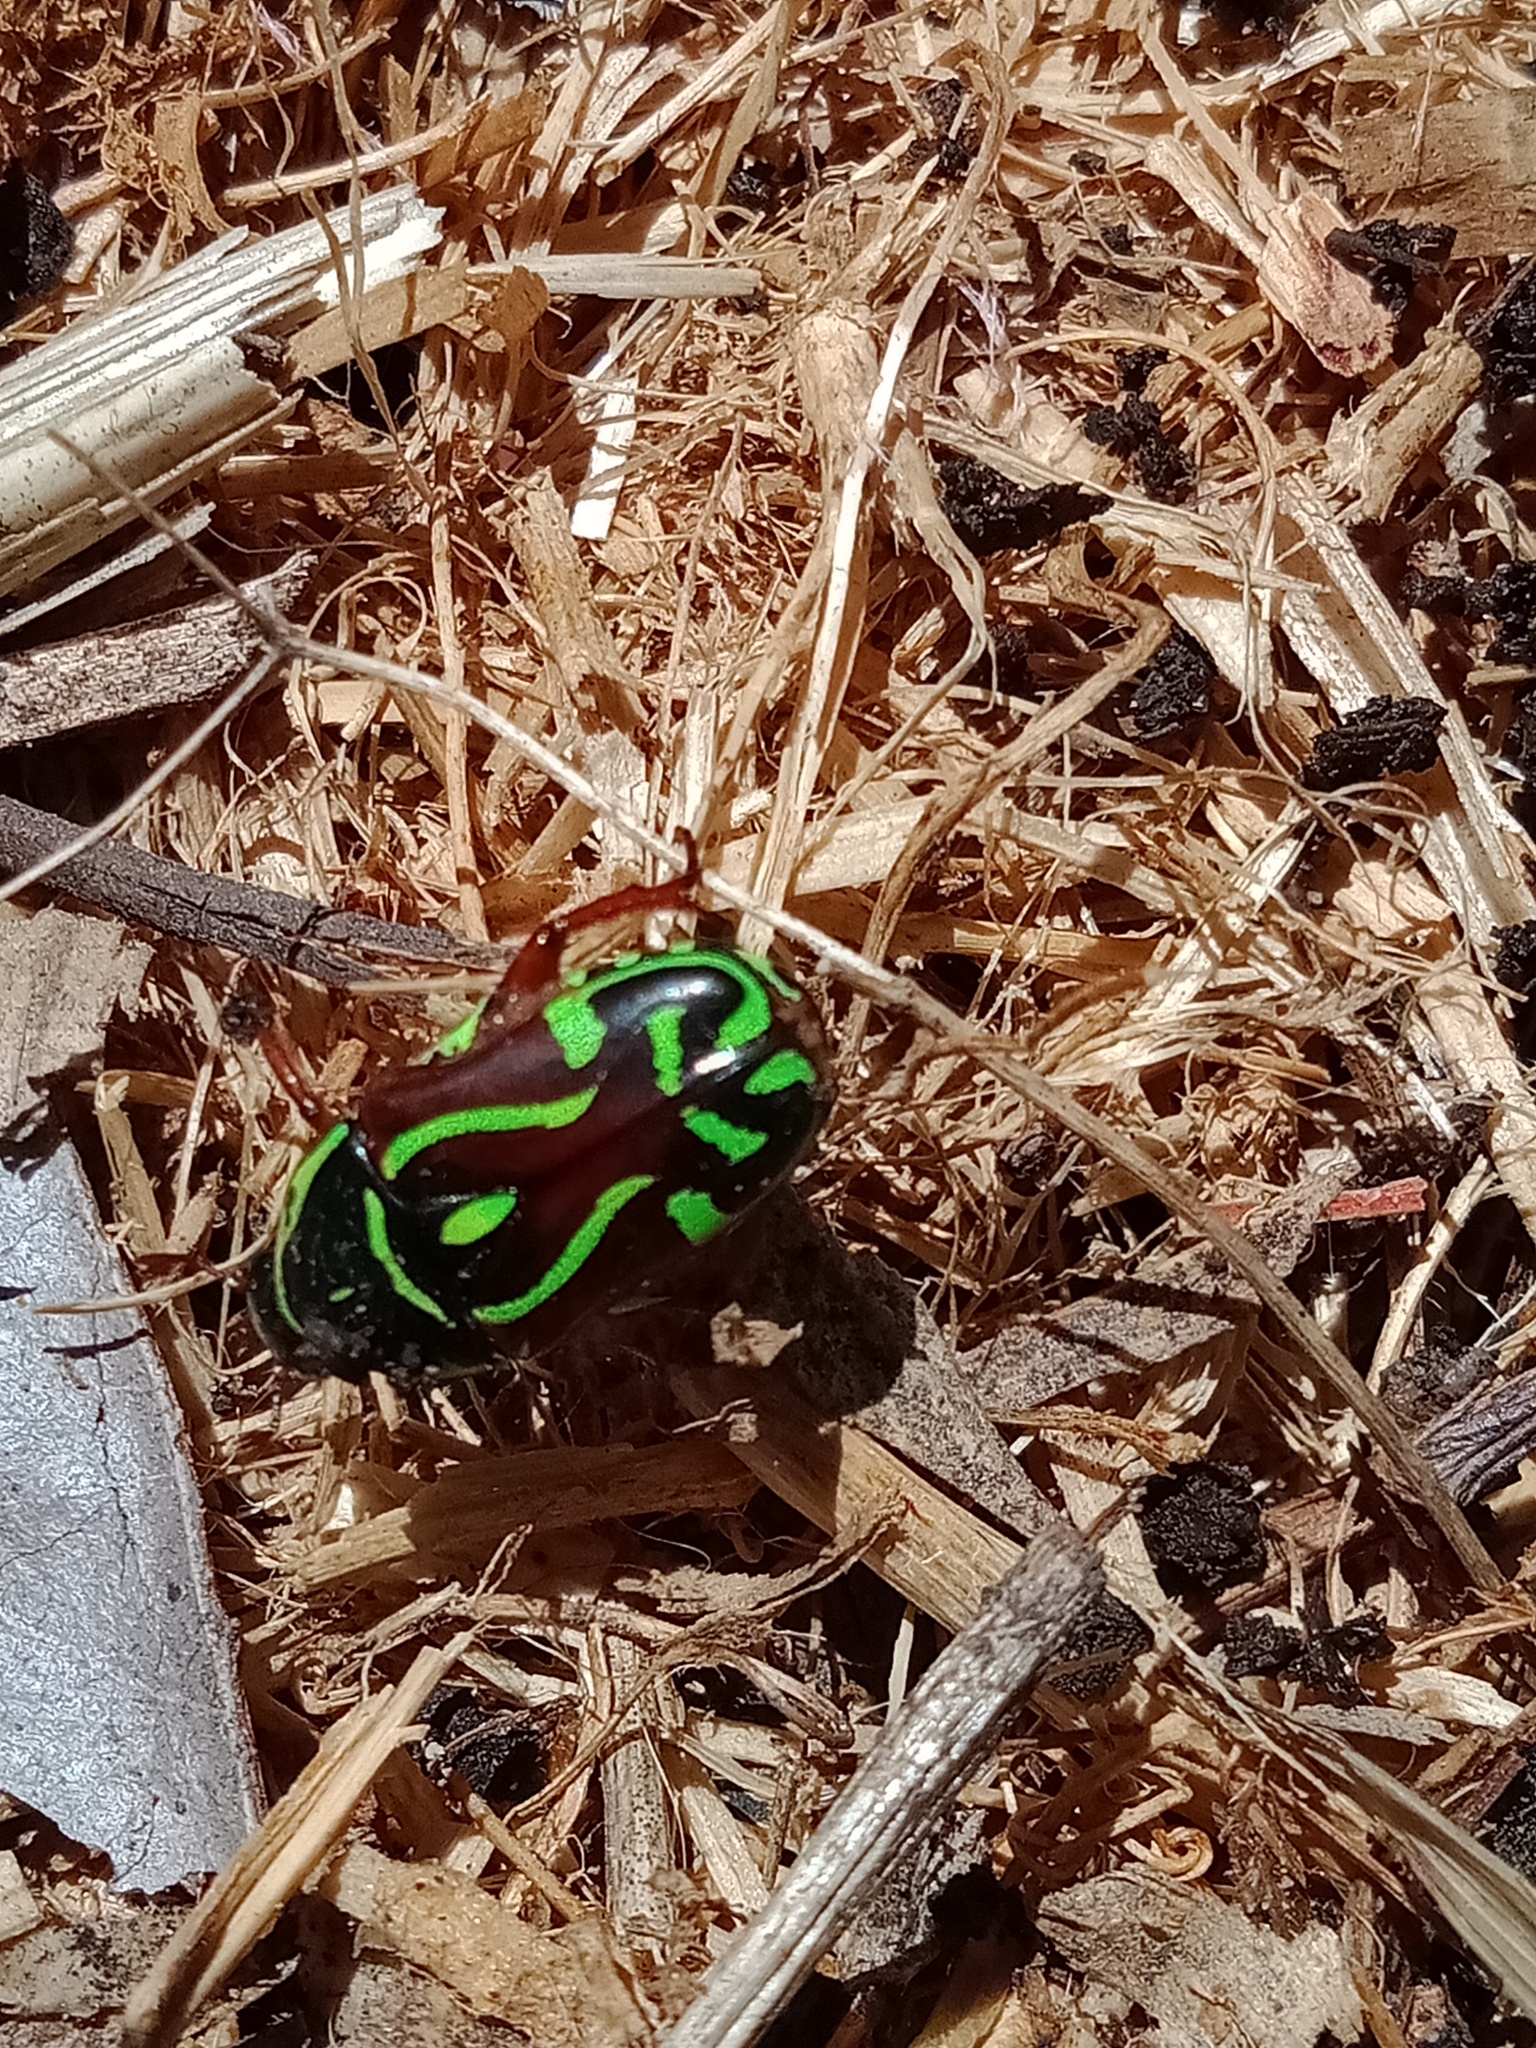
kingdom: Animalia
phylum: Arthropoda
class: Insecta
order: Coleoptera
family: Scarabaeidae
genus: Eupoecila
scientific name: Eupoecila australasiae
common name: Fiddler beetle
